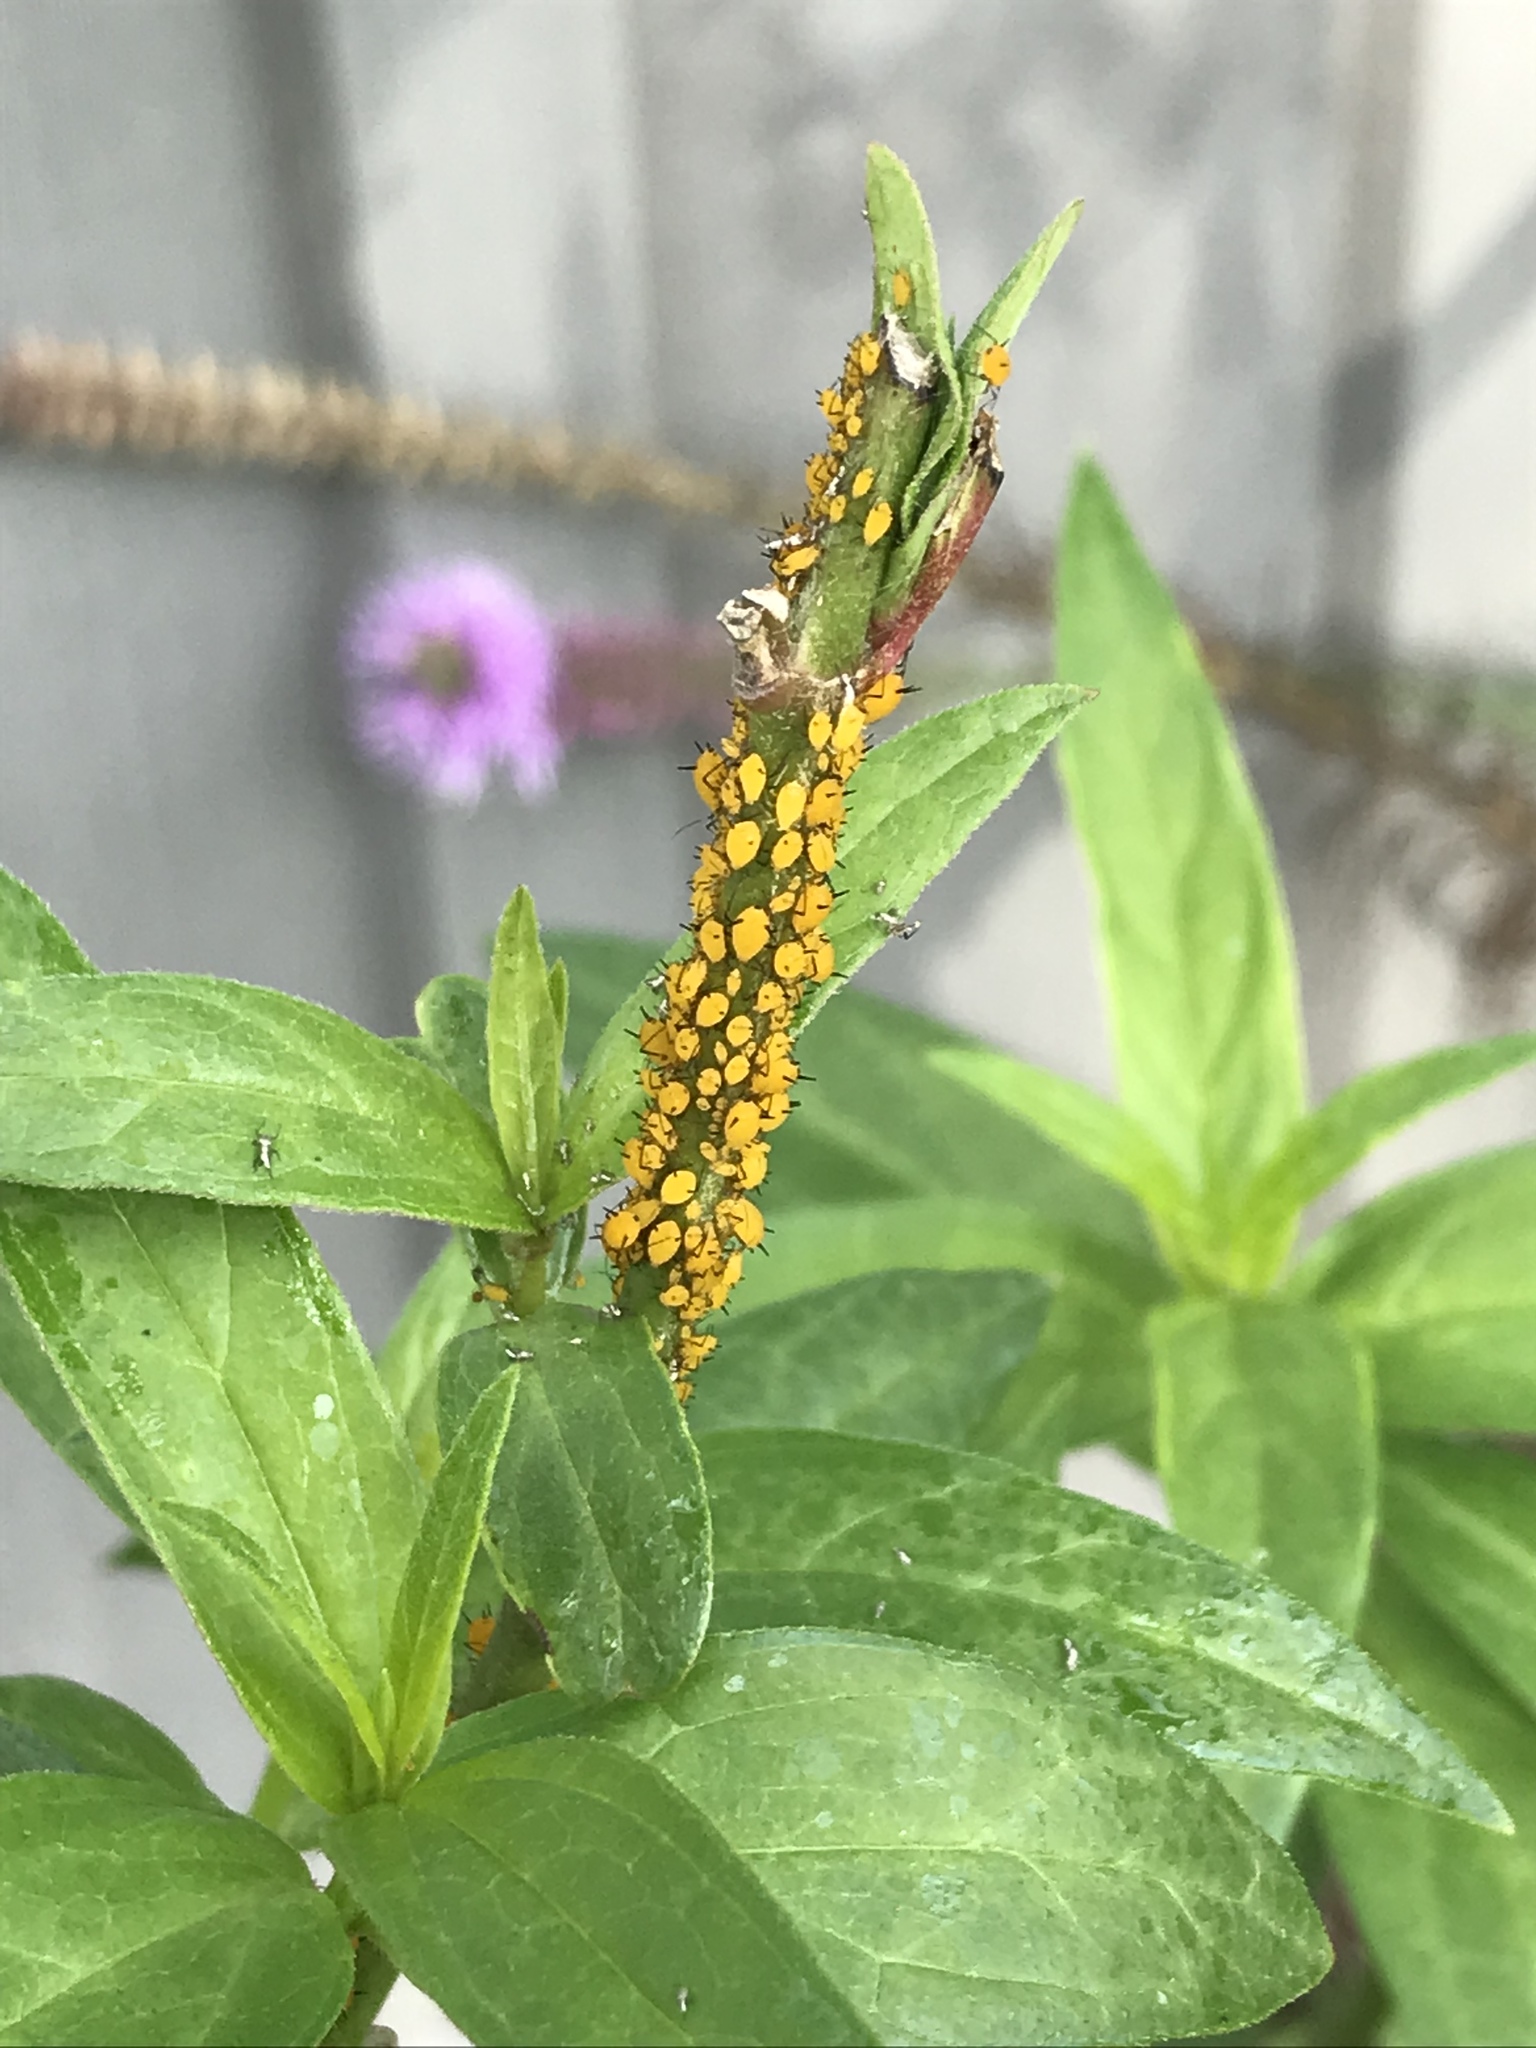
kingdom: Animalia
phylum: Arthropoda
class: Insecta
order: Hemiptera
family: Aphididae
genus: Aphis
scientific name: Aphis nerii
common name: Oleander aphid
